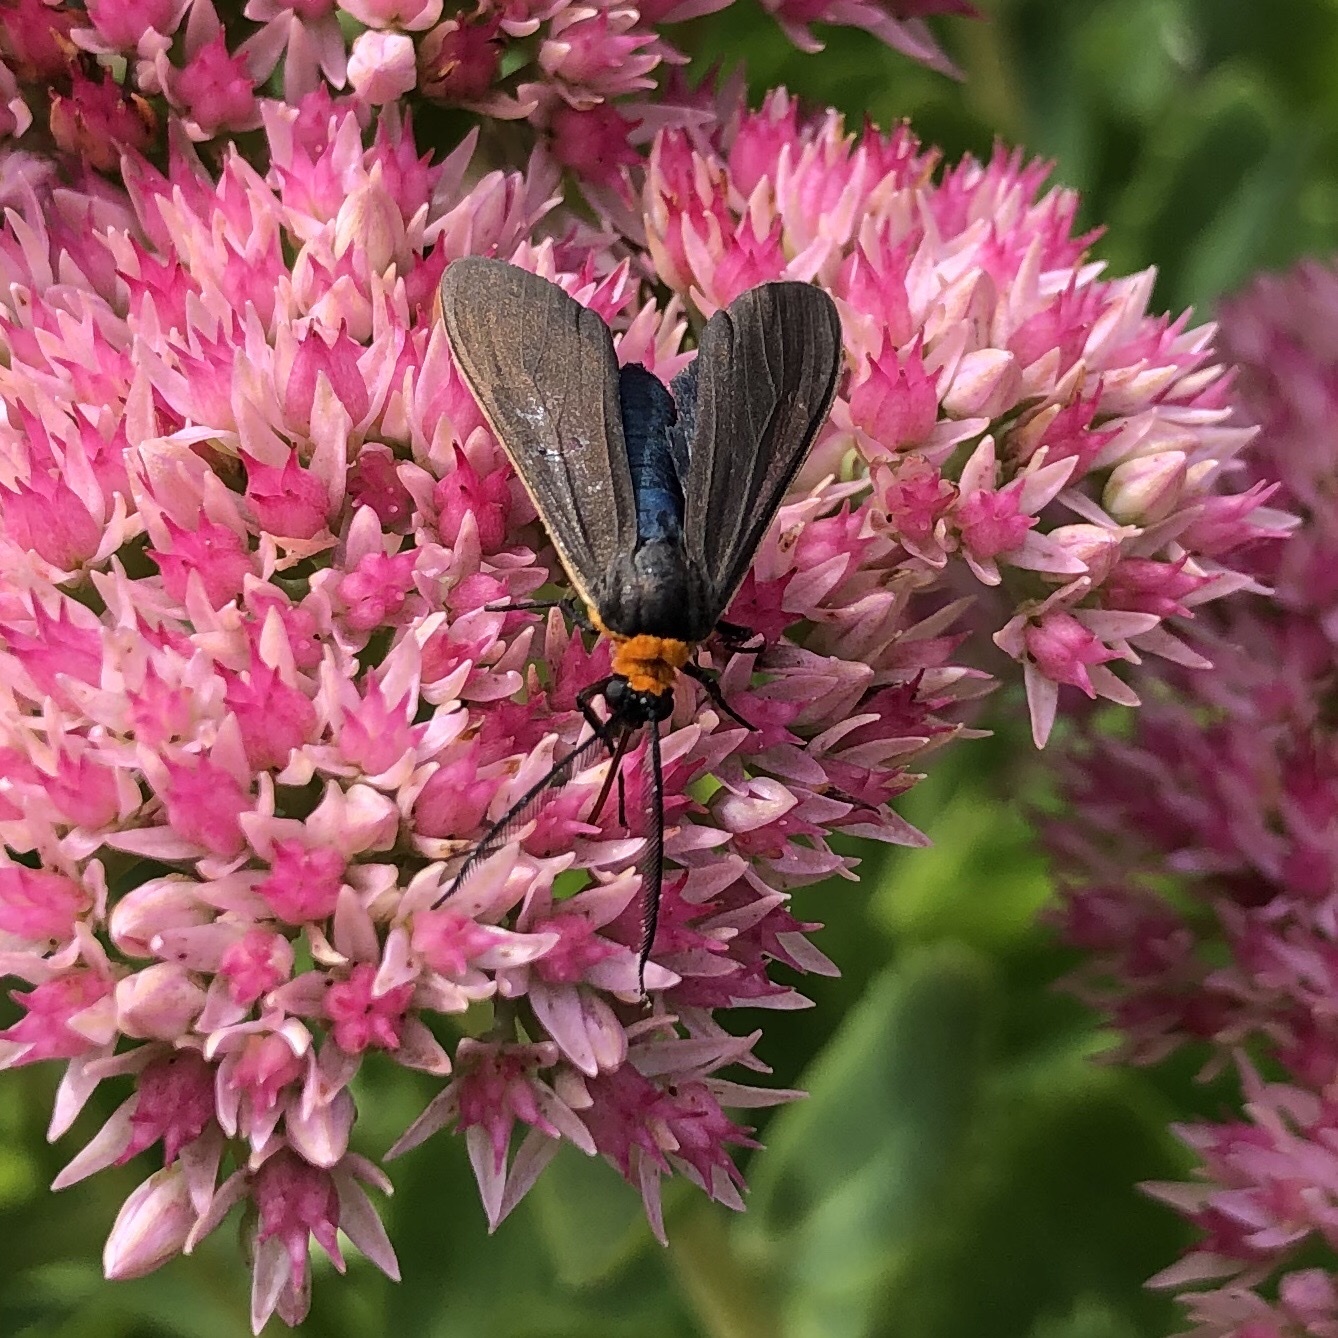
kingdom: Animalia
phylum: Arthropoda
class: Insecta
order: Lepidoptera
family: Erebidae
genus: Cisseps
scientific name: Cisseps fulvicollis
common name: Yellow-collared scape moth
